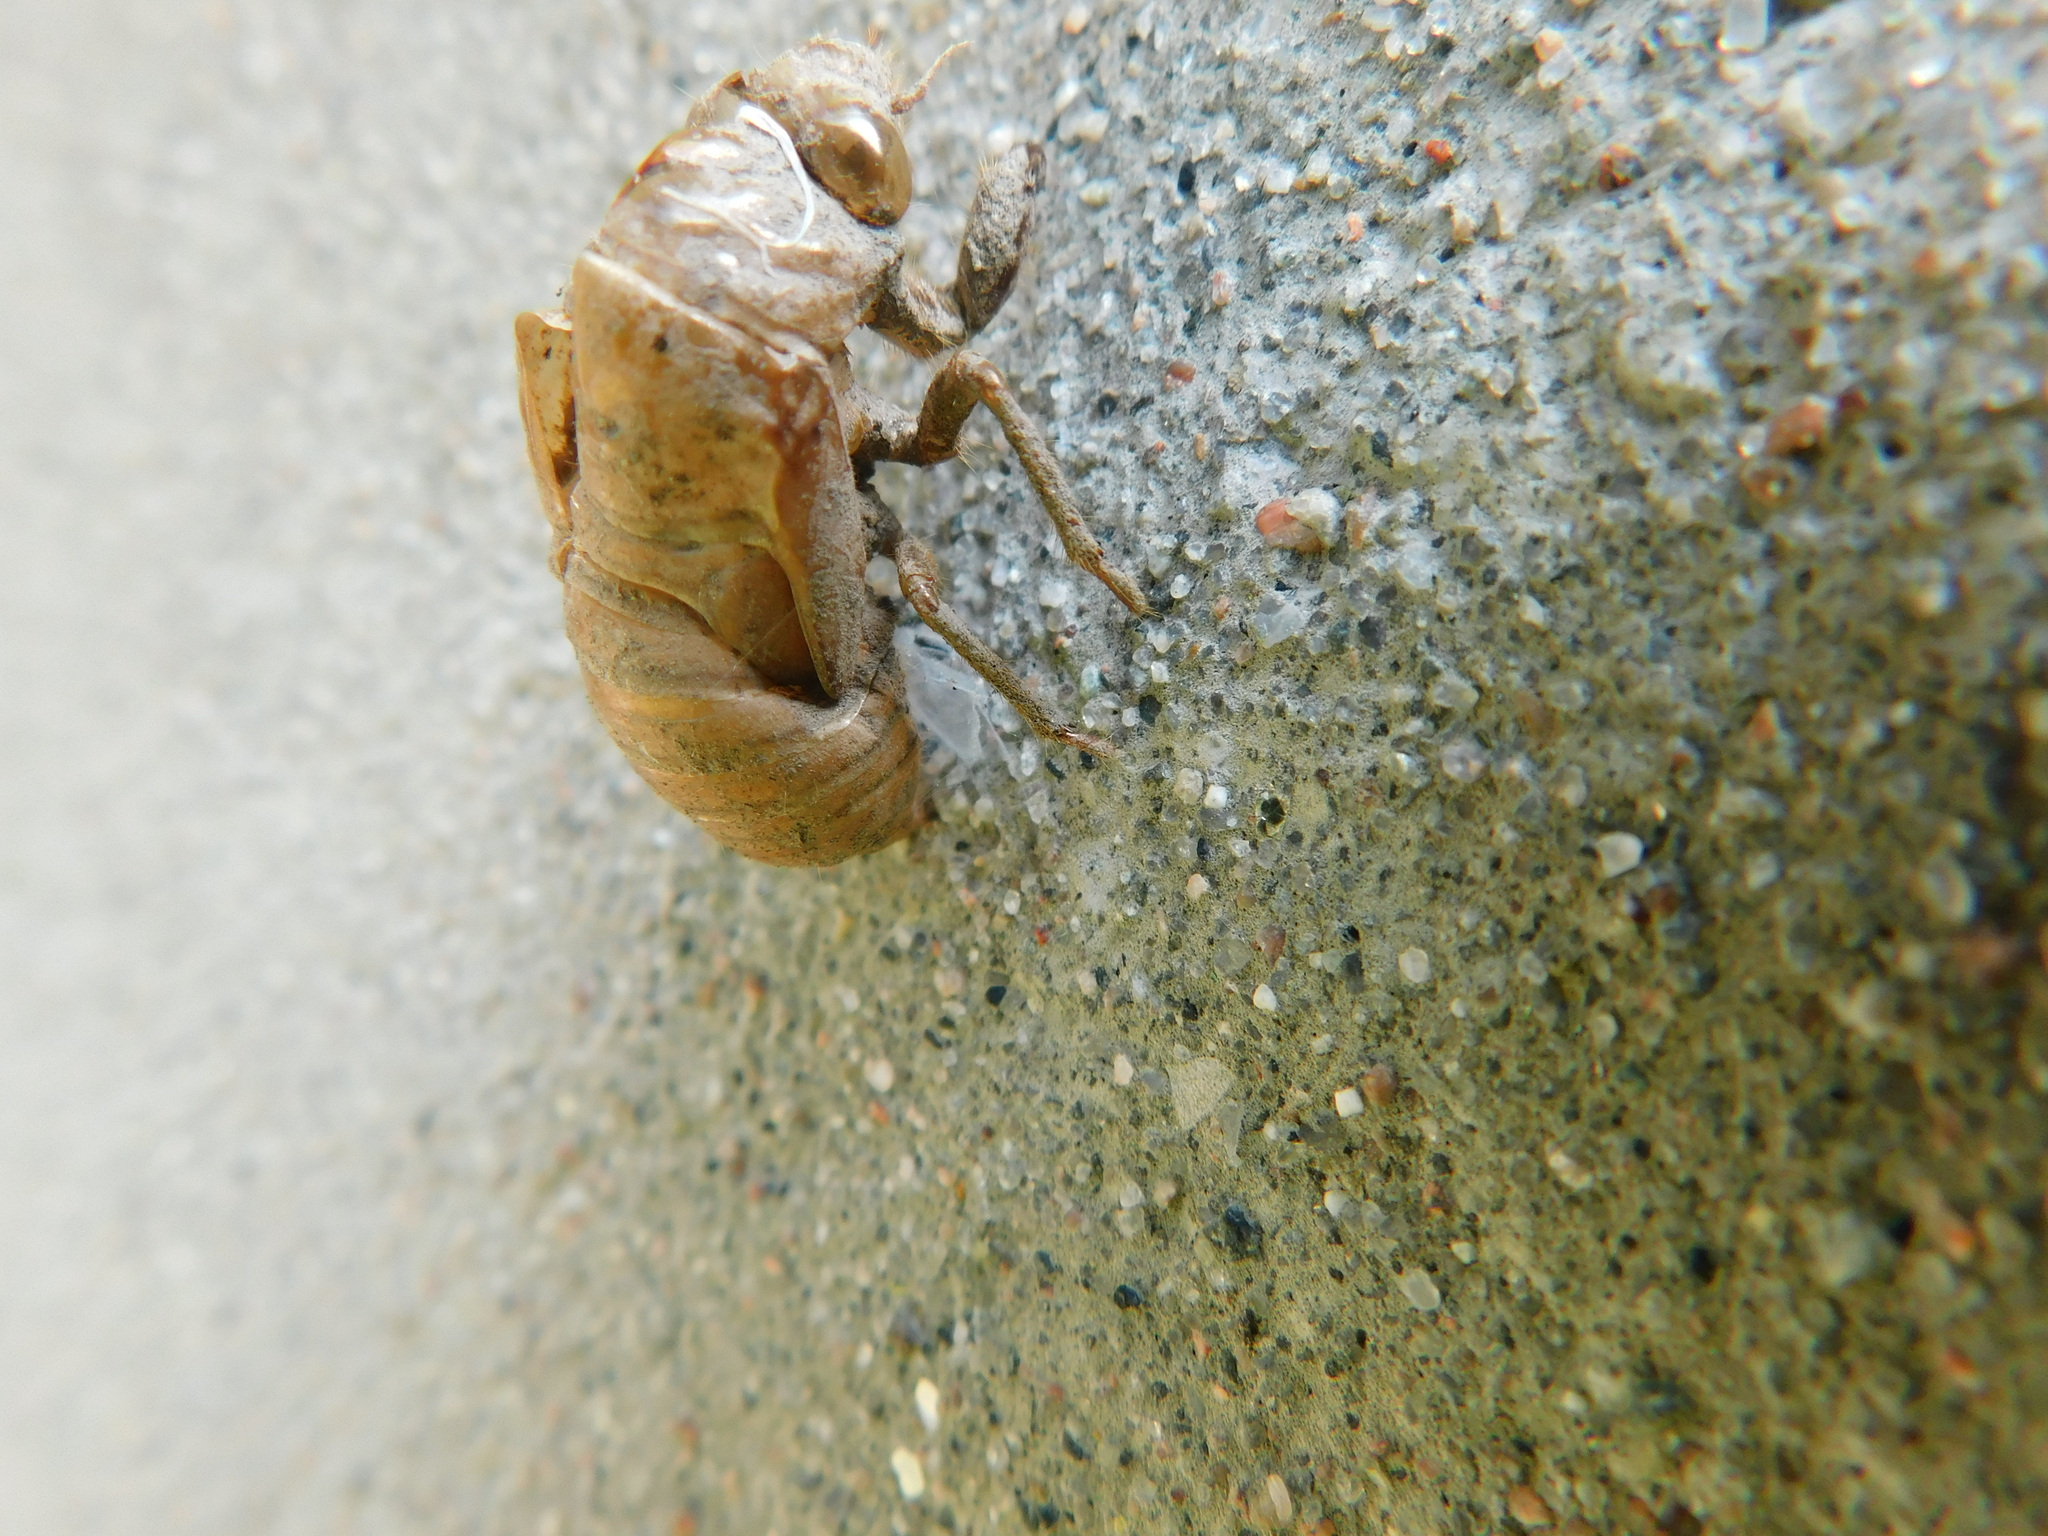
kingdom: Animalia
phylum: Arthropoda
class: Insecta
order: Hemiptera
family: Cicadidae
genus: Neotibicen
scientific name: Neotibicen canicularis
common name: God-day cicada
